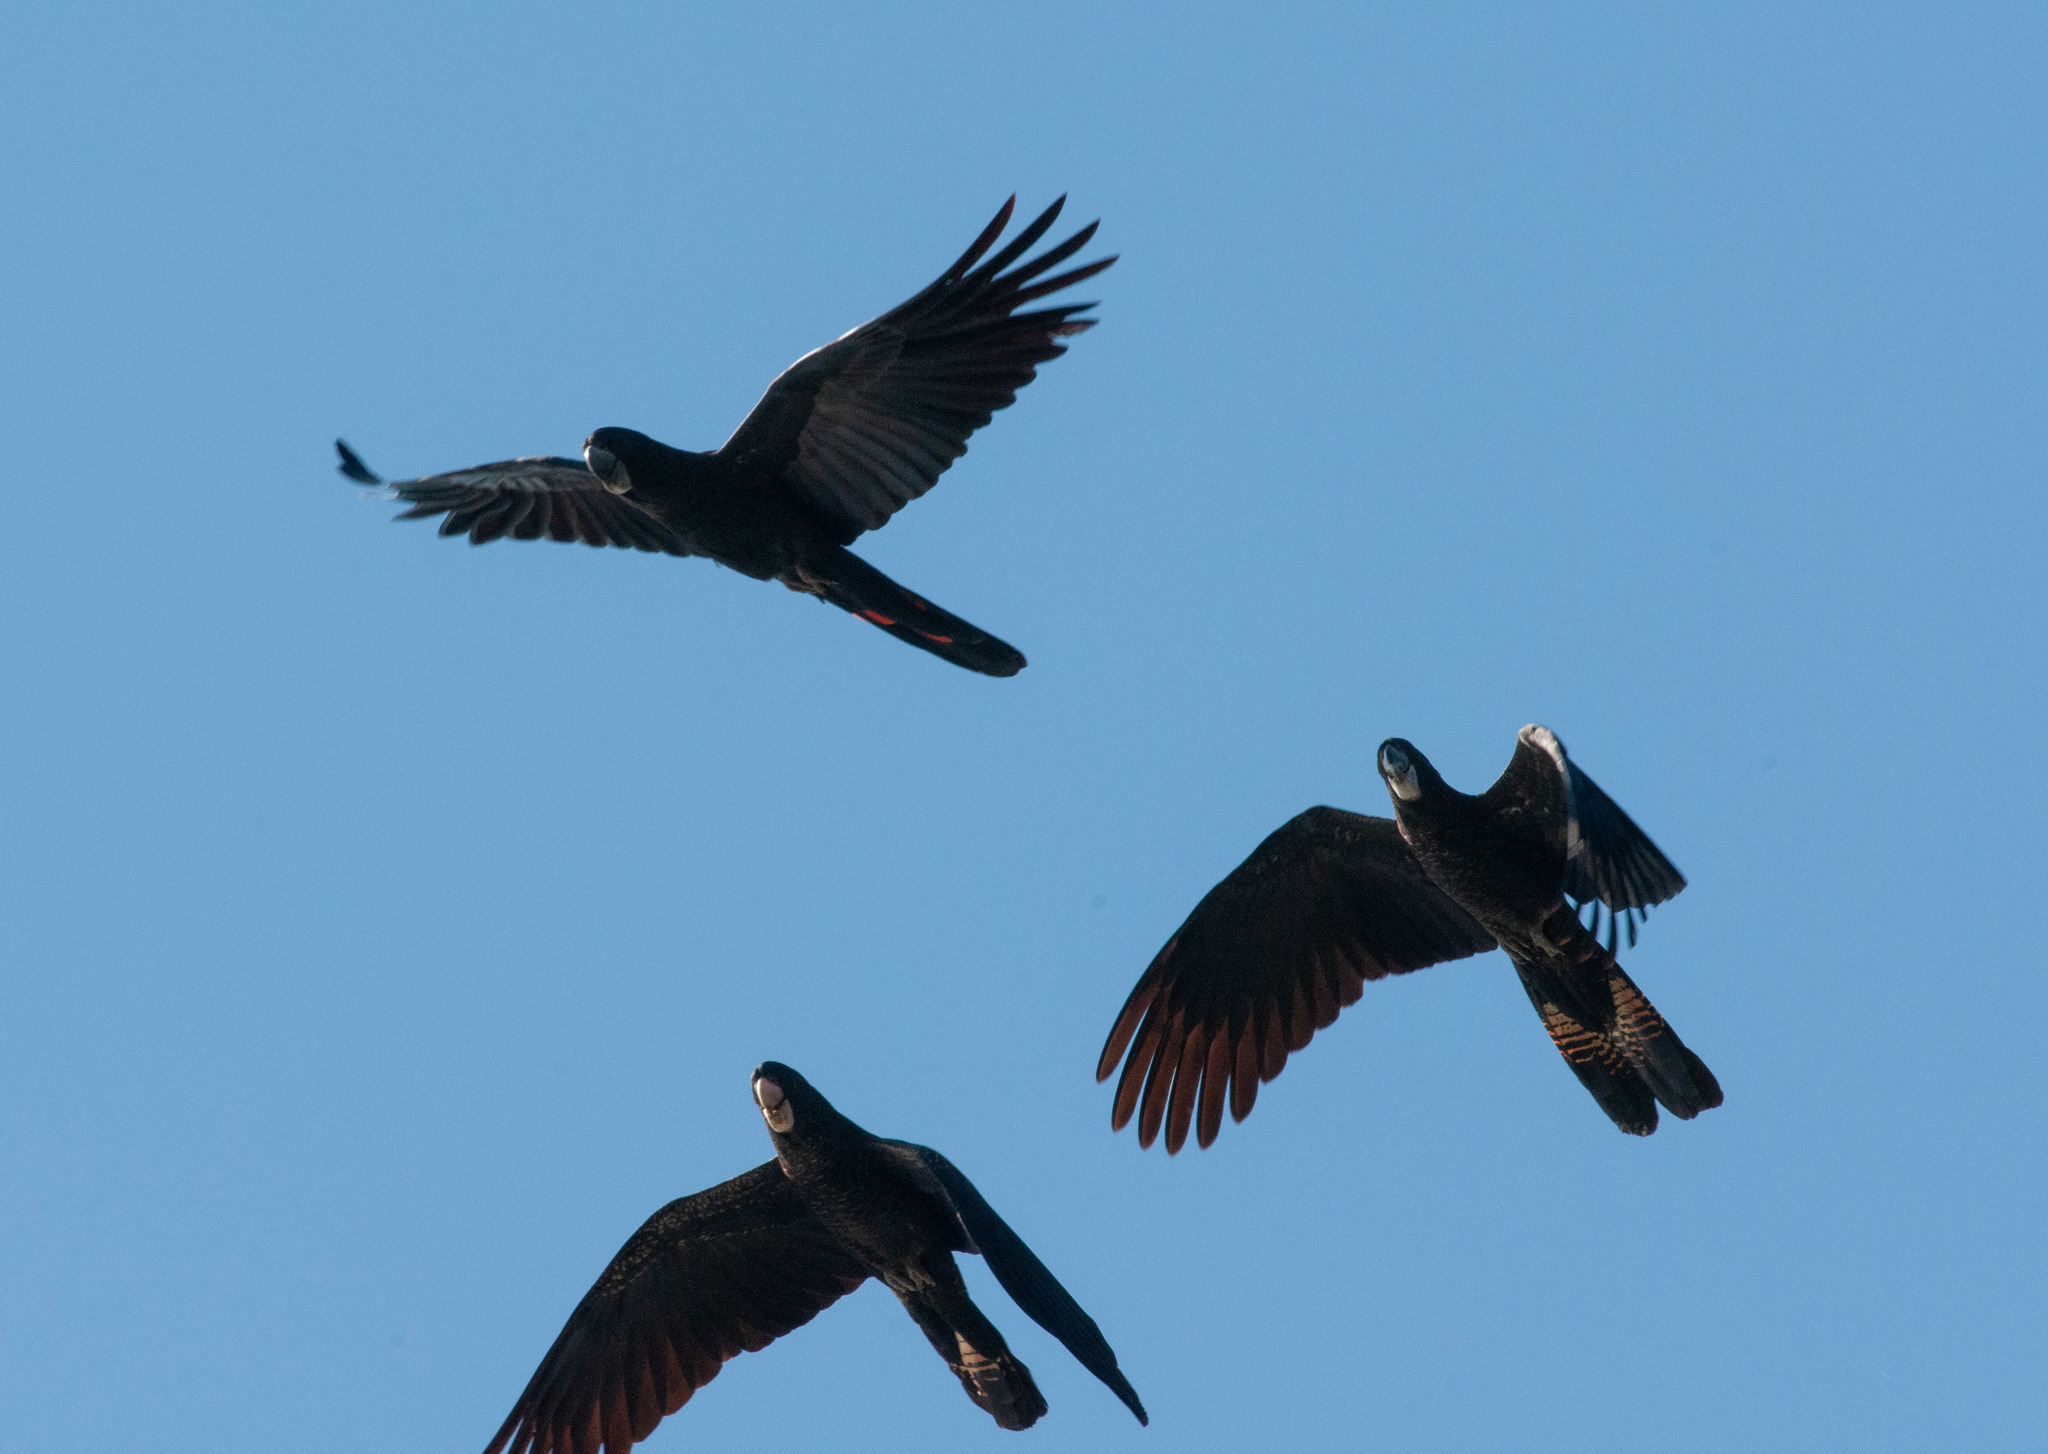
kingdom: Animalia
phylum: Chordata
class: Aves
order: Psittaciformes
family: Psittacidae
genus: Calyptorhynchus
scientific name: Calyptorhynchus banksii
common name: Red-tailed black cockatoo
